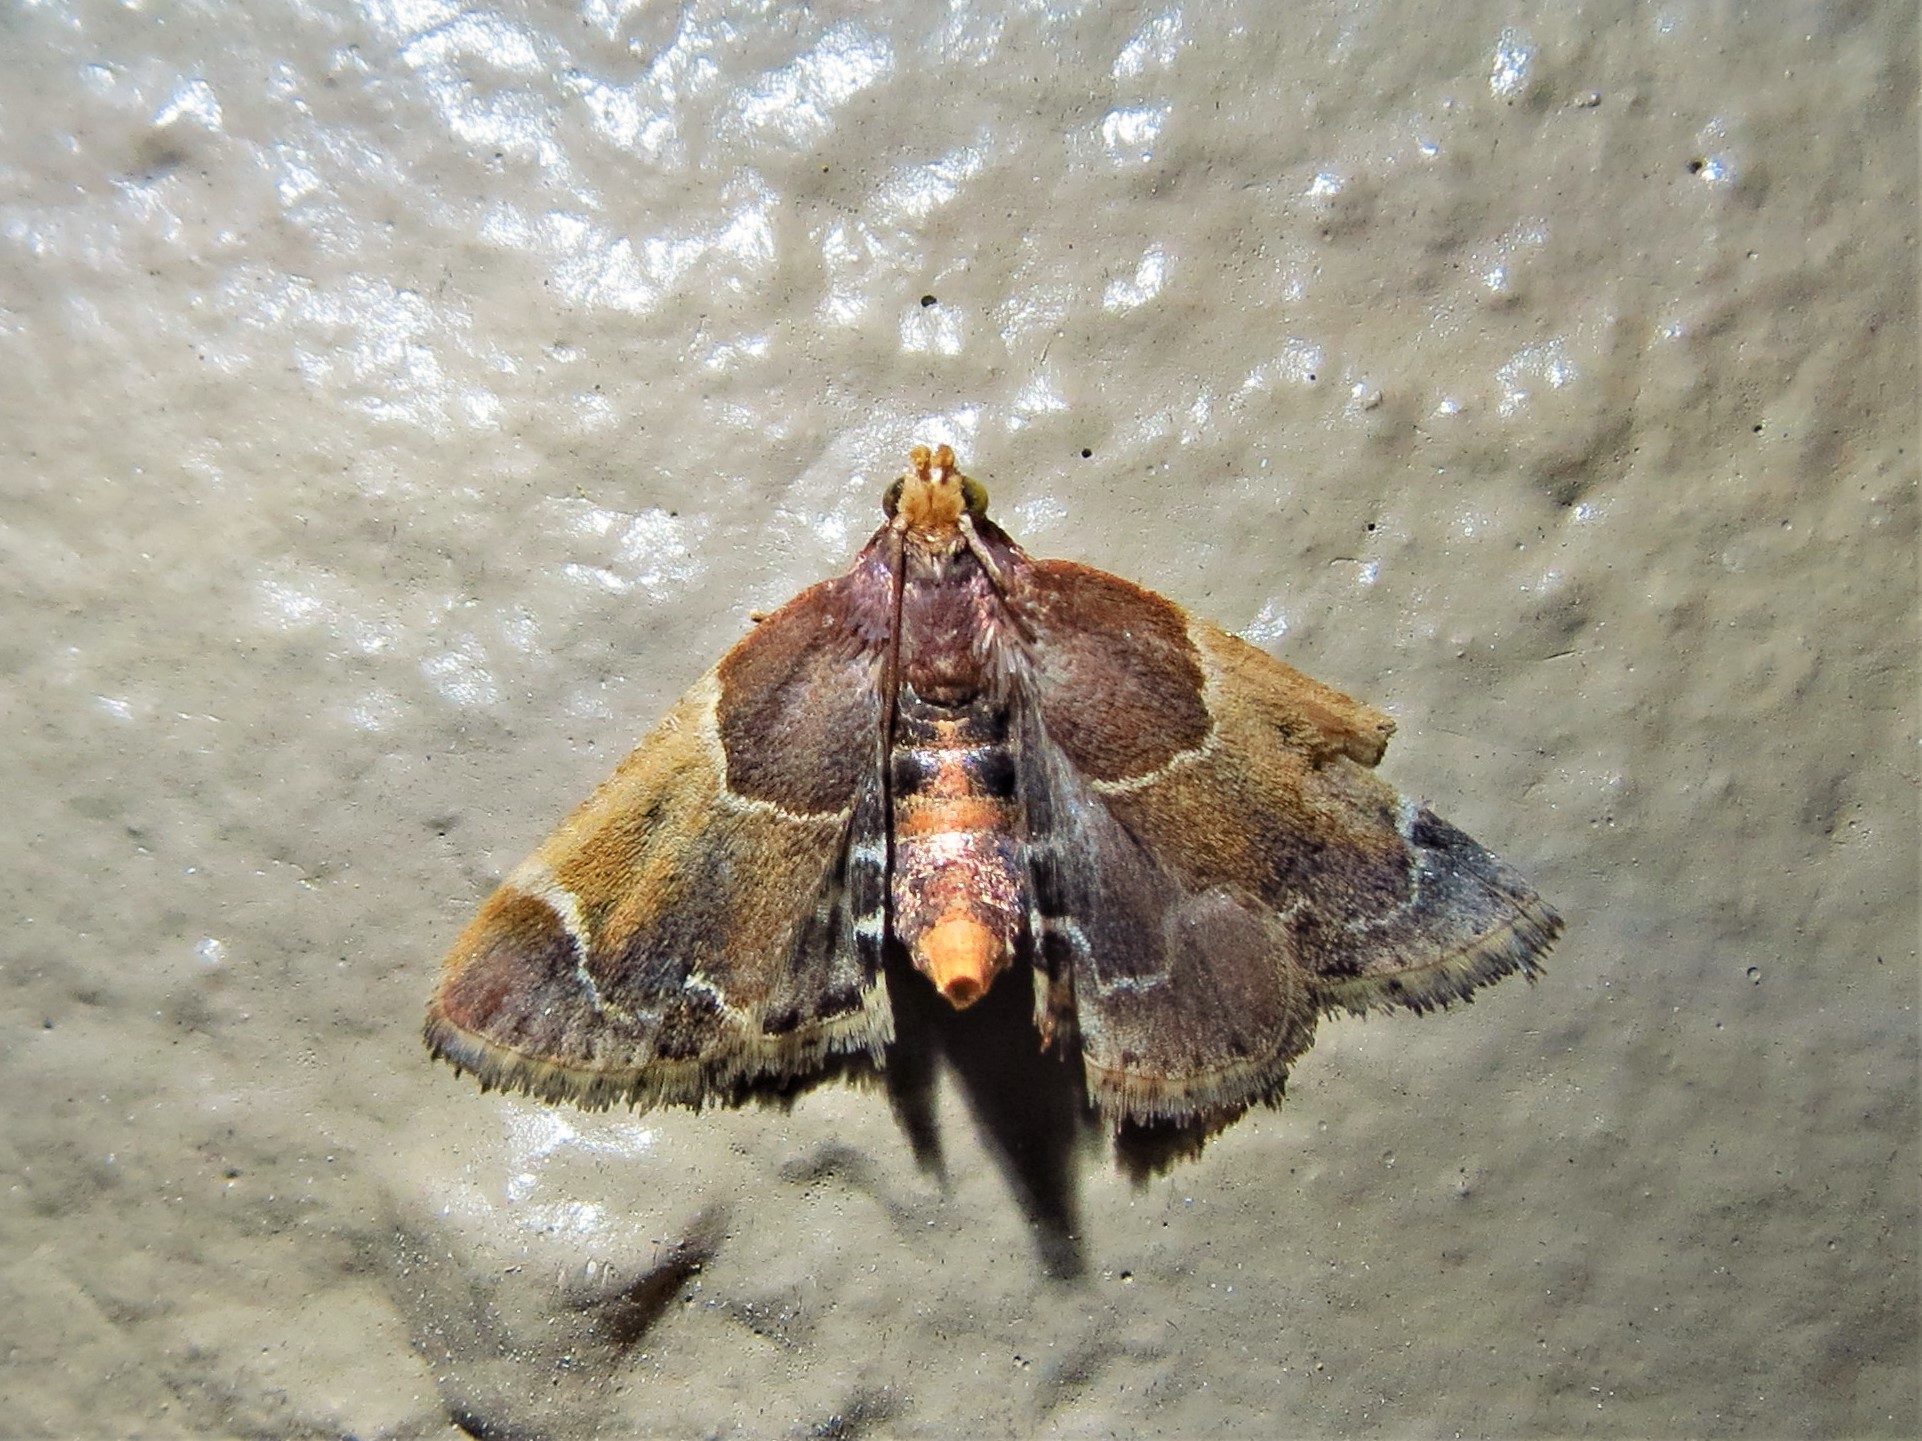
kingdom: Animalia
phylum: Arthropoda
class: Insecta
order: Lepidoptera
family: Pyralidae
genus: Pyralis
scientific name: Pyralis farinalis
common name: Meal moth
